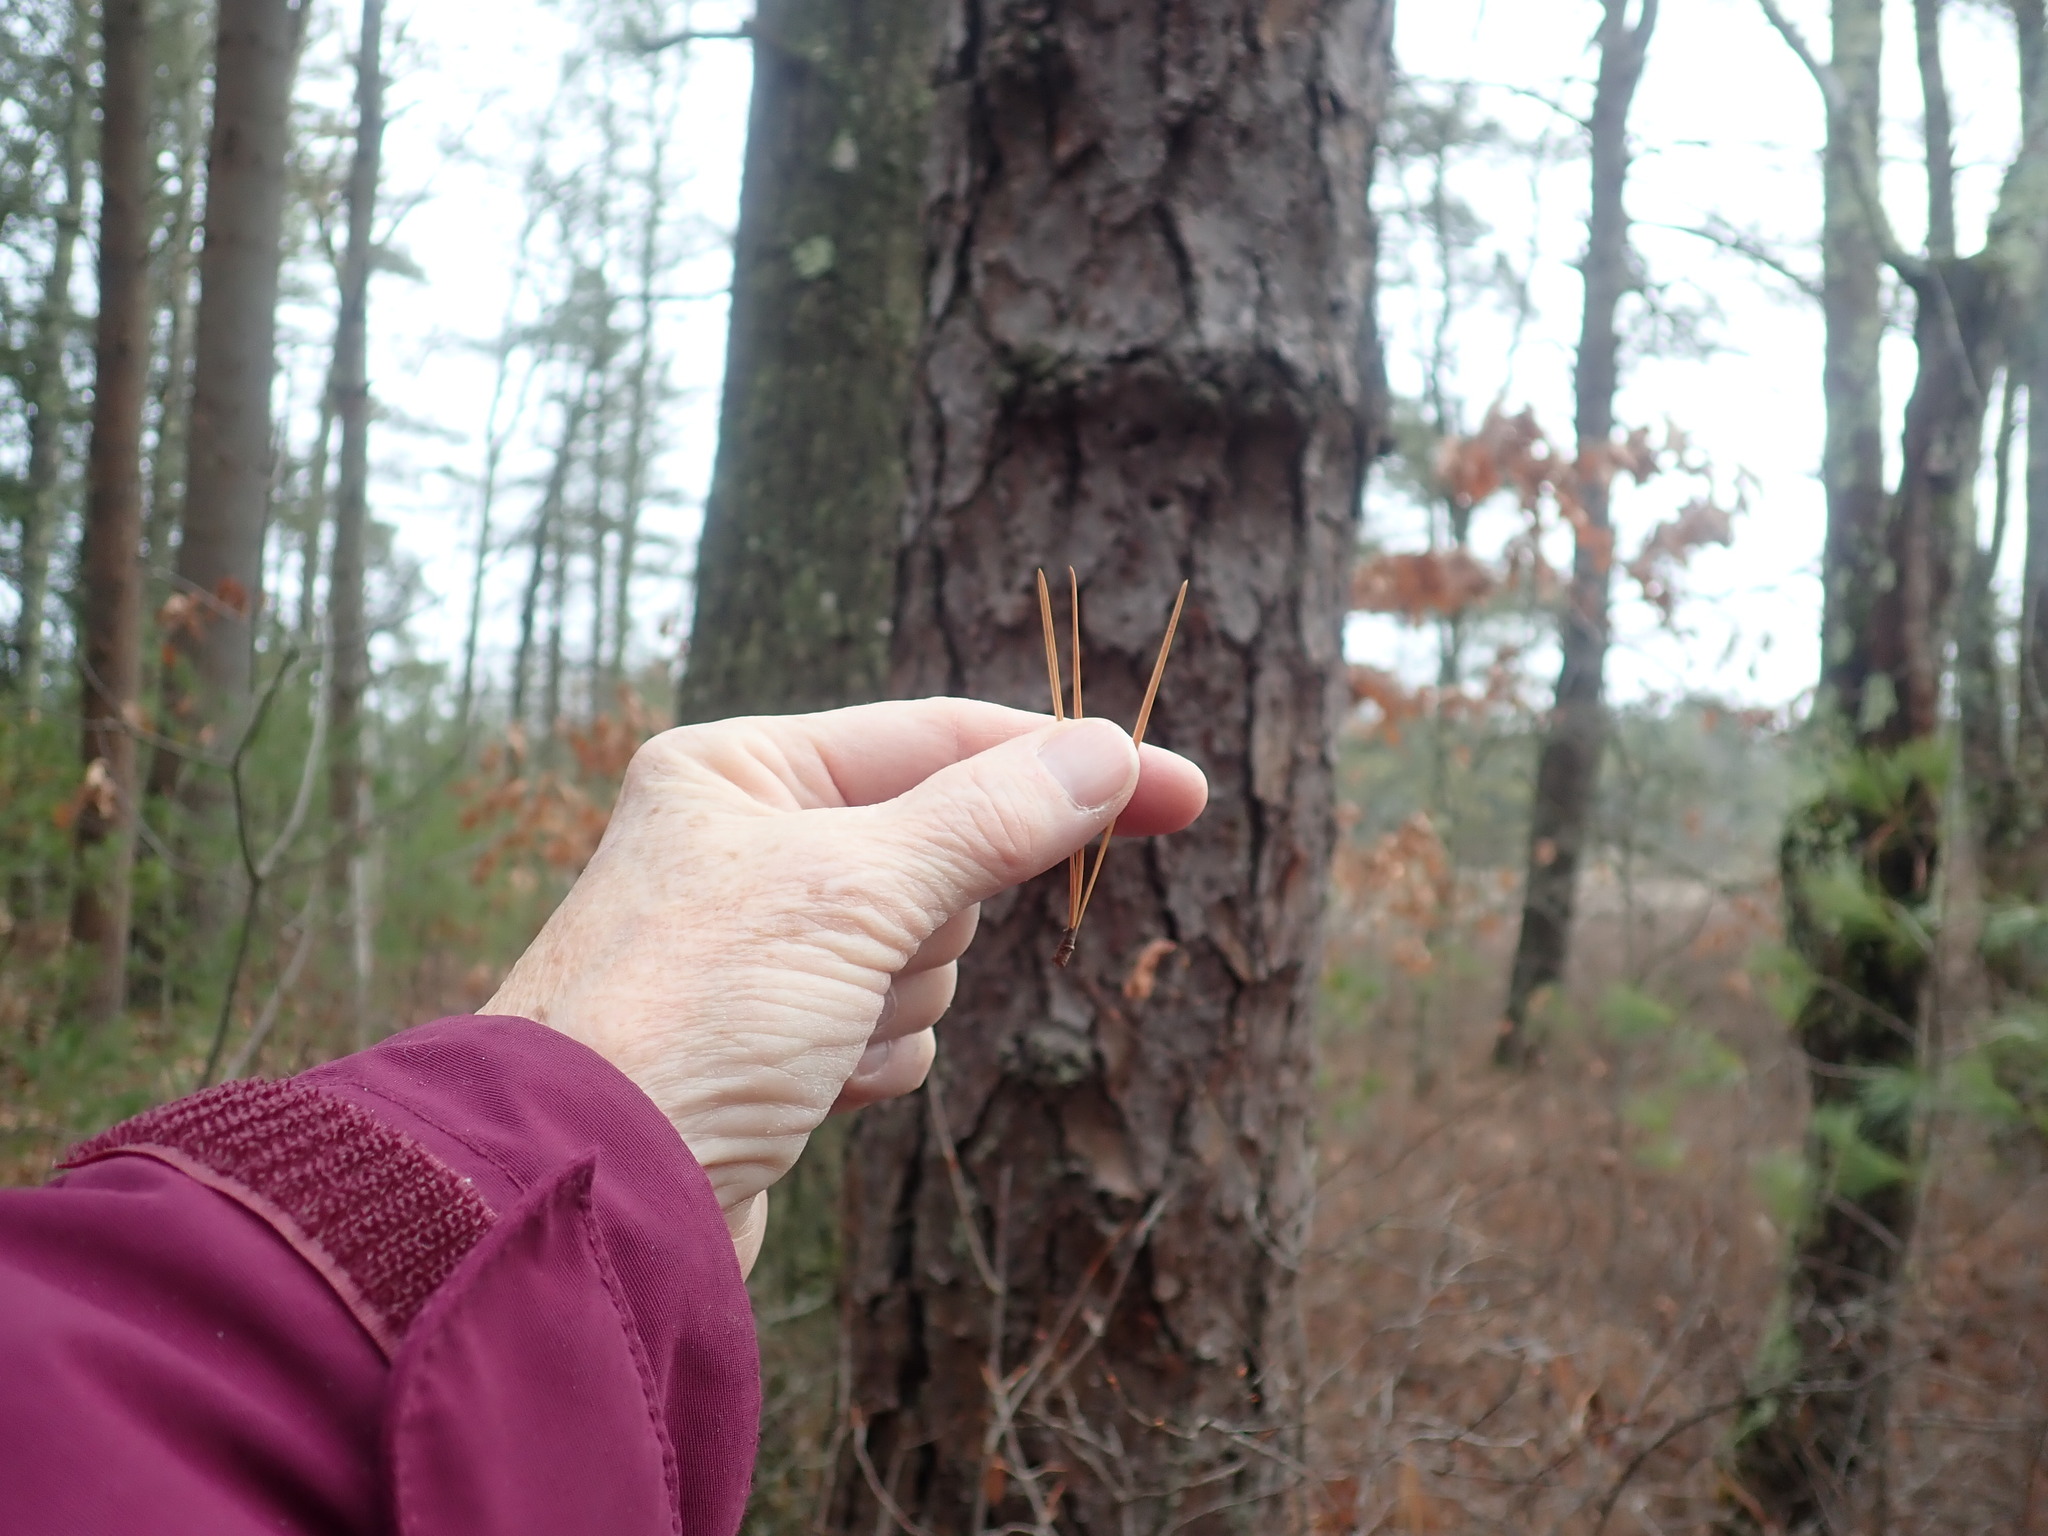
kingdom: Plantae
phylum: Tracheophyta
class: Pinopsida
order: Pinales
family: Pinaceae
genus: Pinus
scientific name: Pinus rigida
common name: Pitch pine
